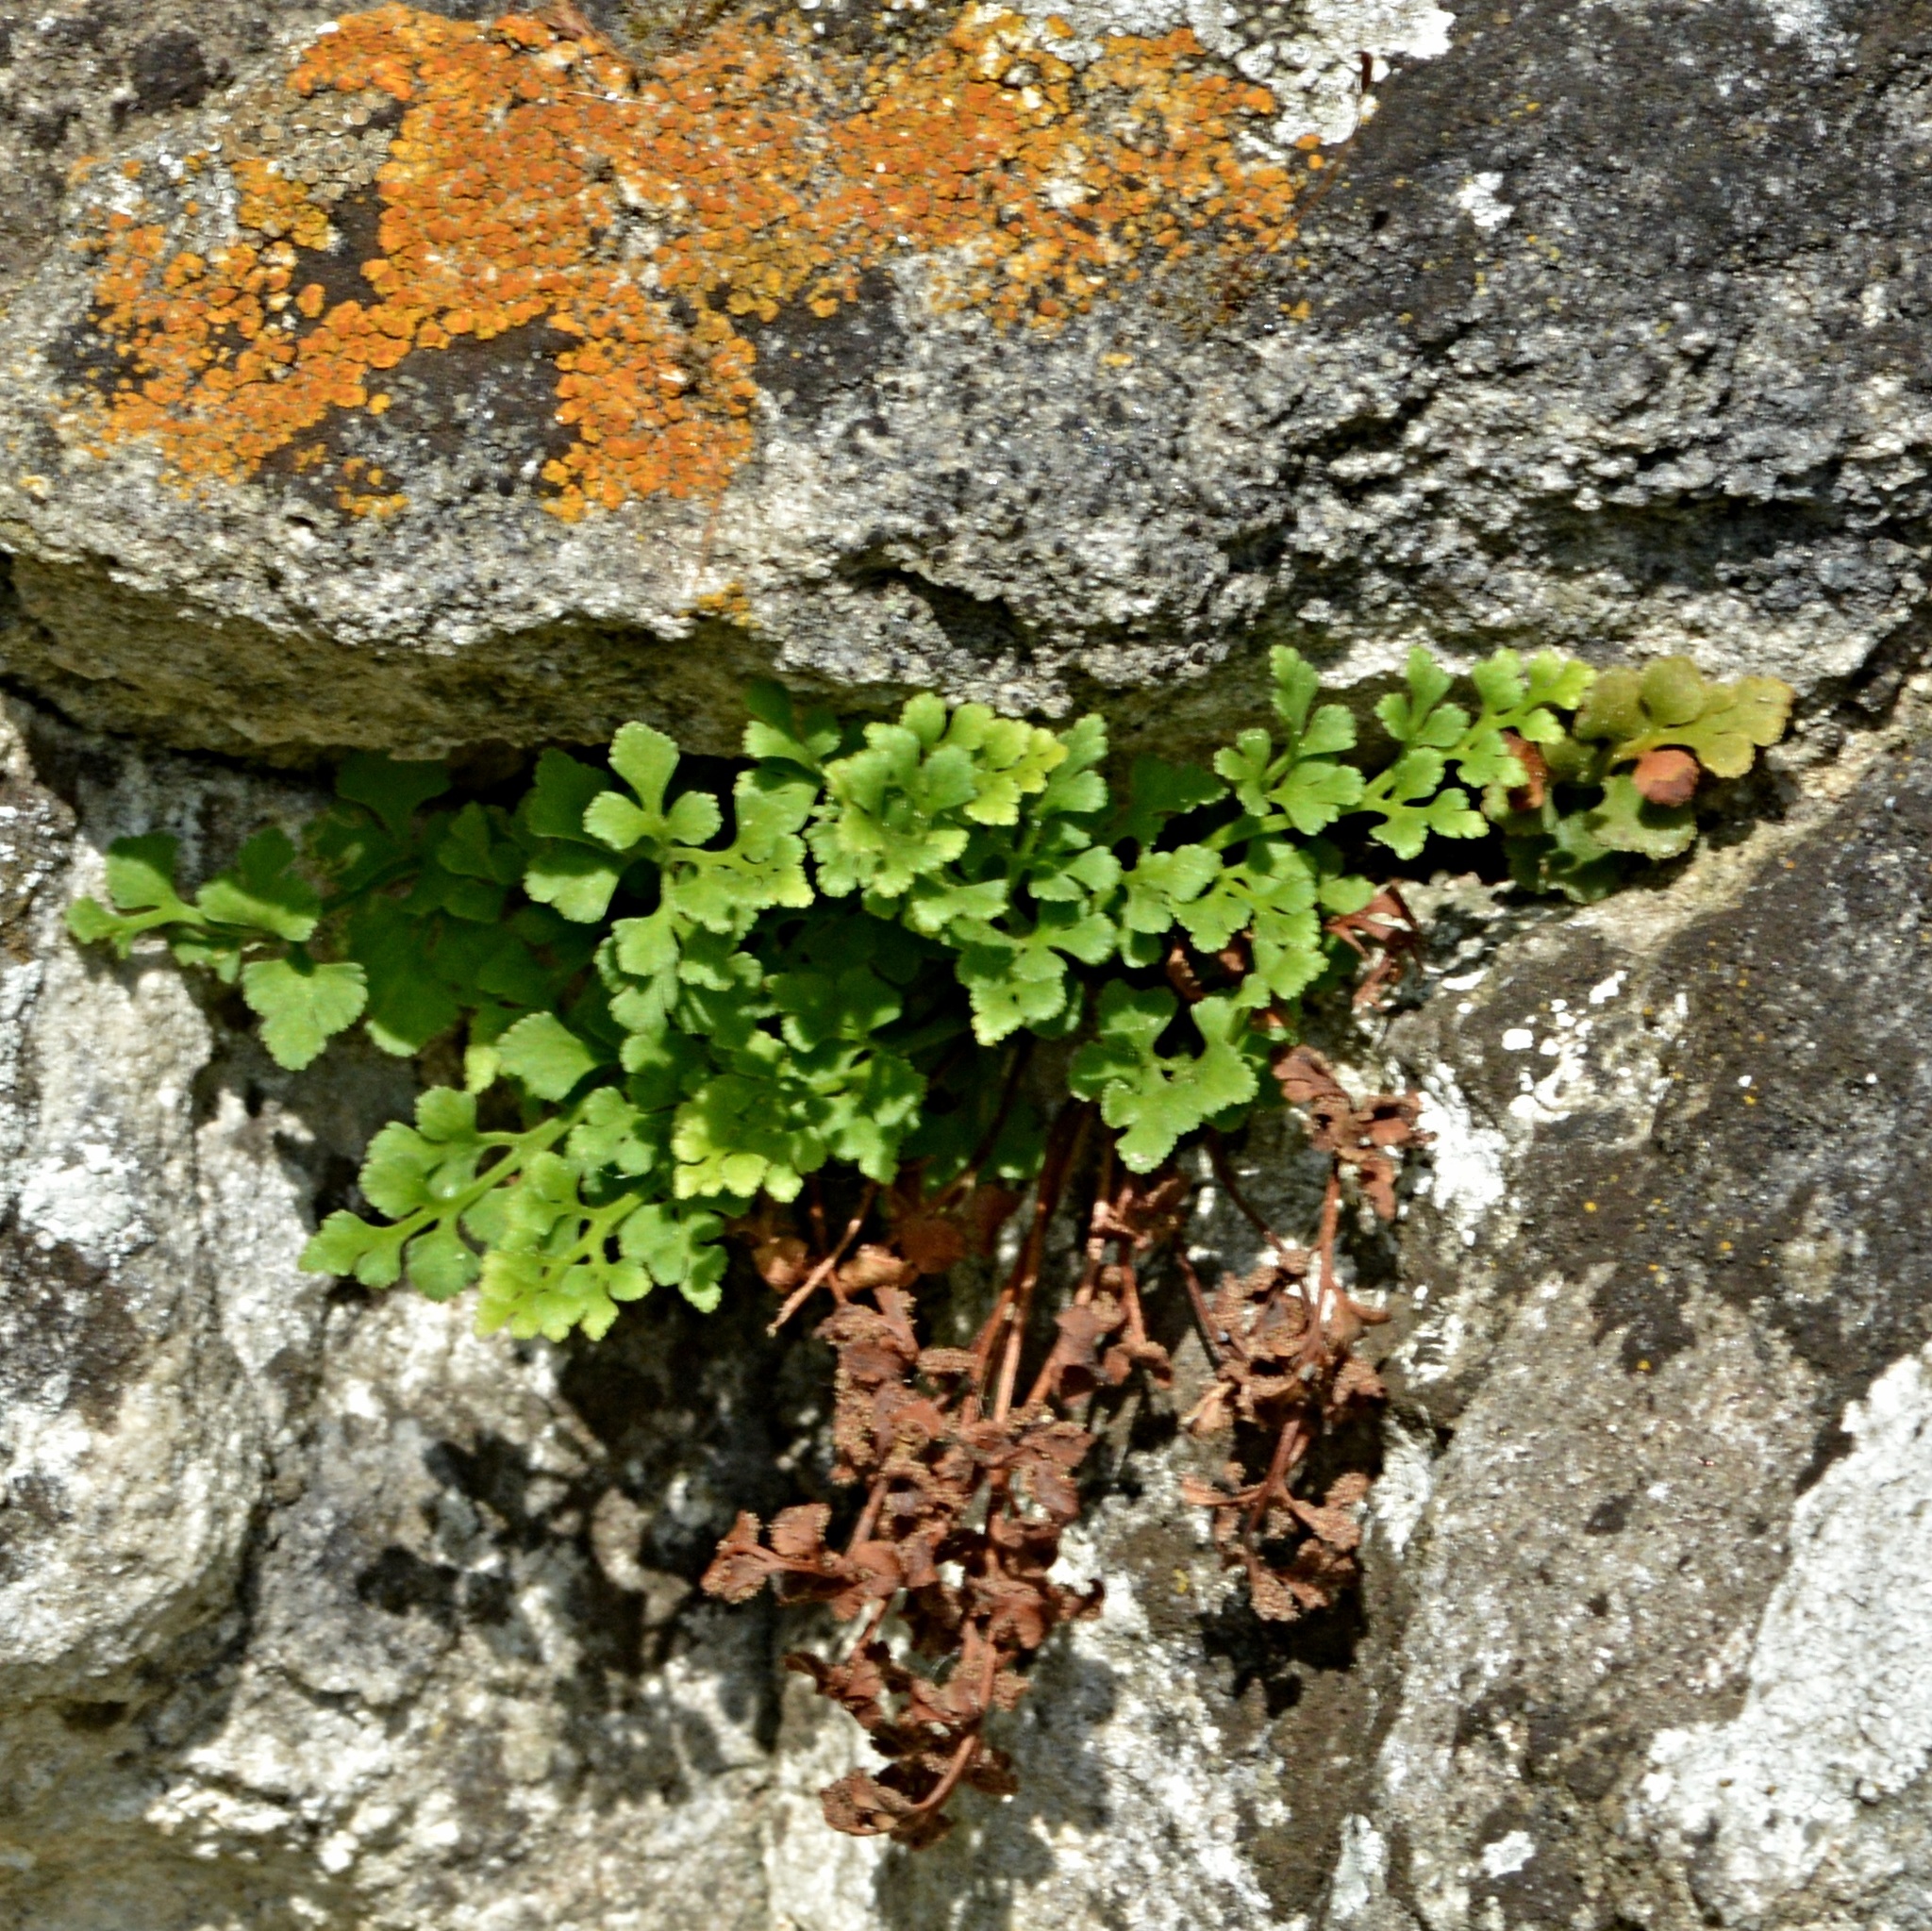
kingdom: Plantae
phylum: Tracheophyta
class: Polypodiopsida
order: Polypodiales
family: Aspleniaceae
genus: Asplenium
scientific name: Asplenium ruta-muraria
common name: Wall-rue
